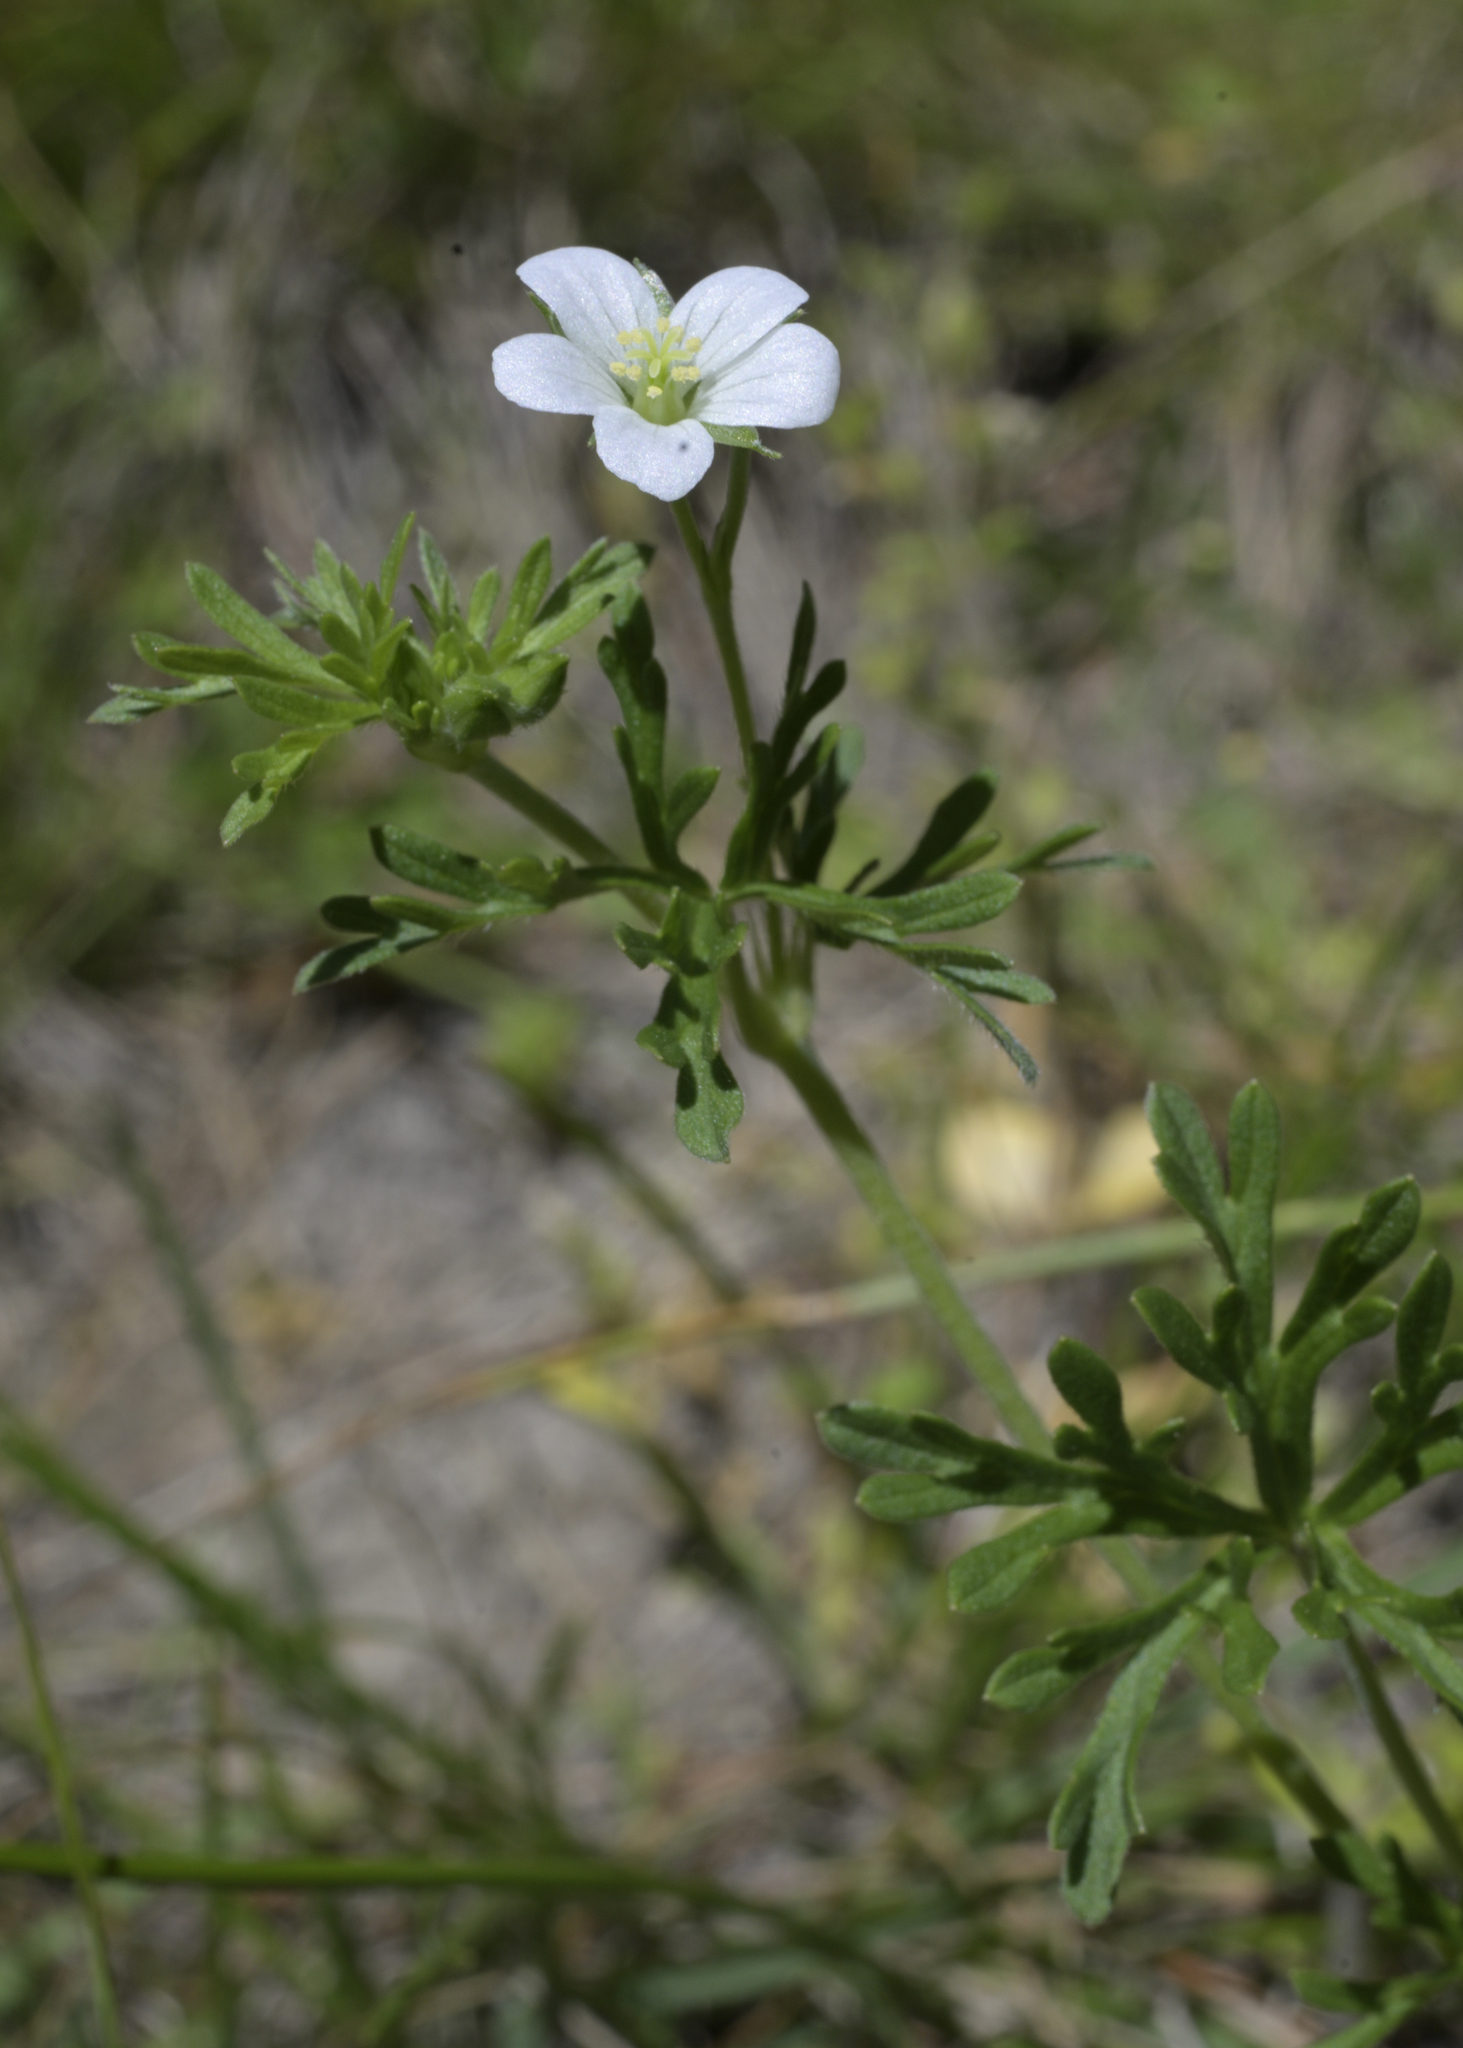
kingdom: Plantae
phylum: Tracheophyta
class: Magnoliopsida
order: Geraniales
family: Geraniaceae
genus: Geranium
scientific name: Geranium retrorsum
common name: New zealand geranium
